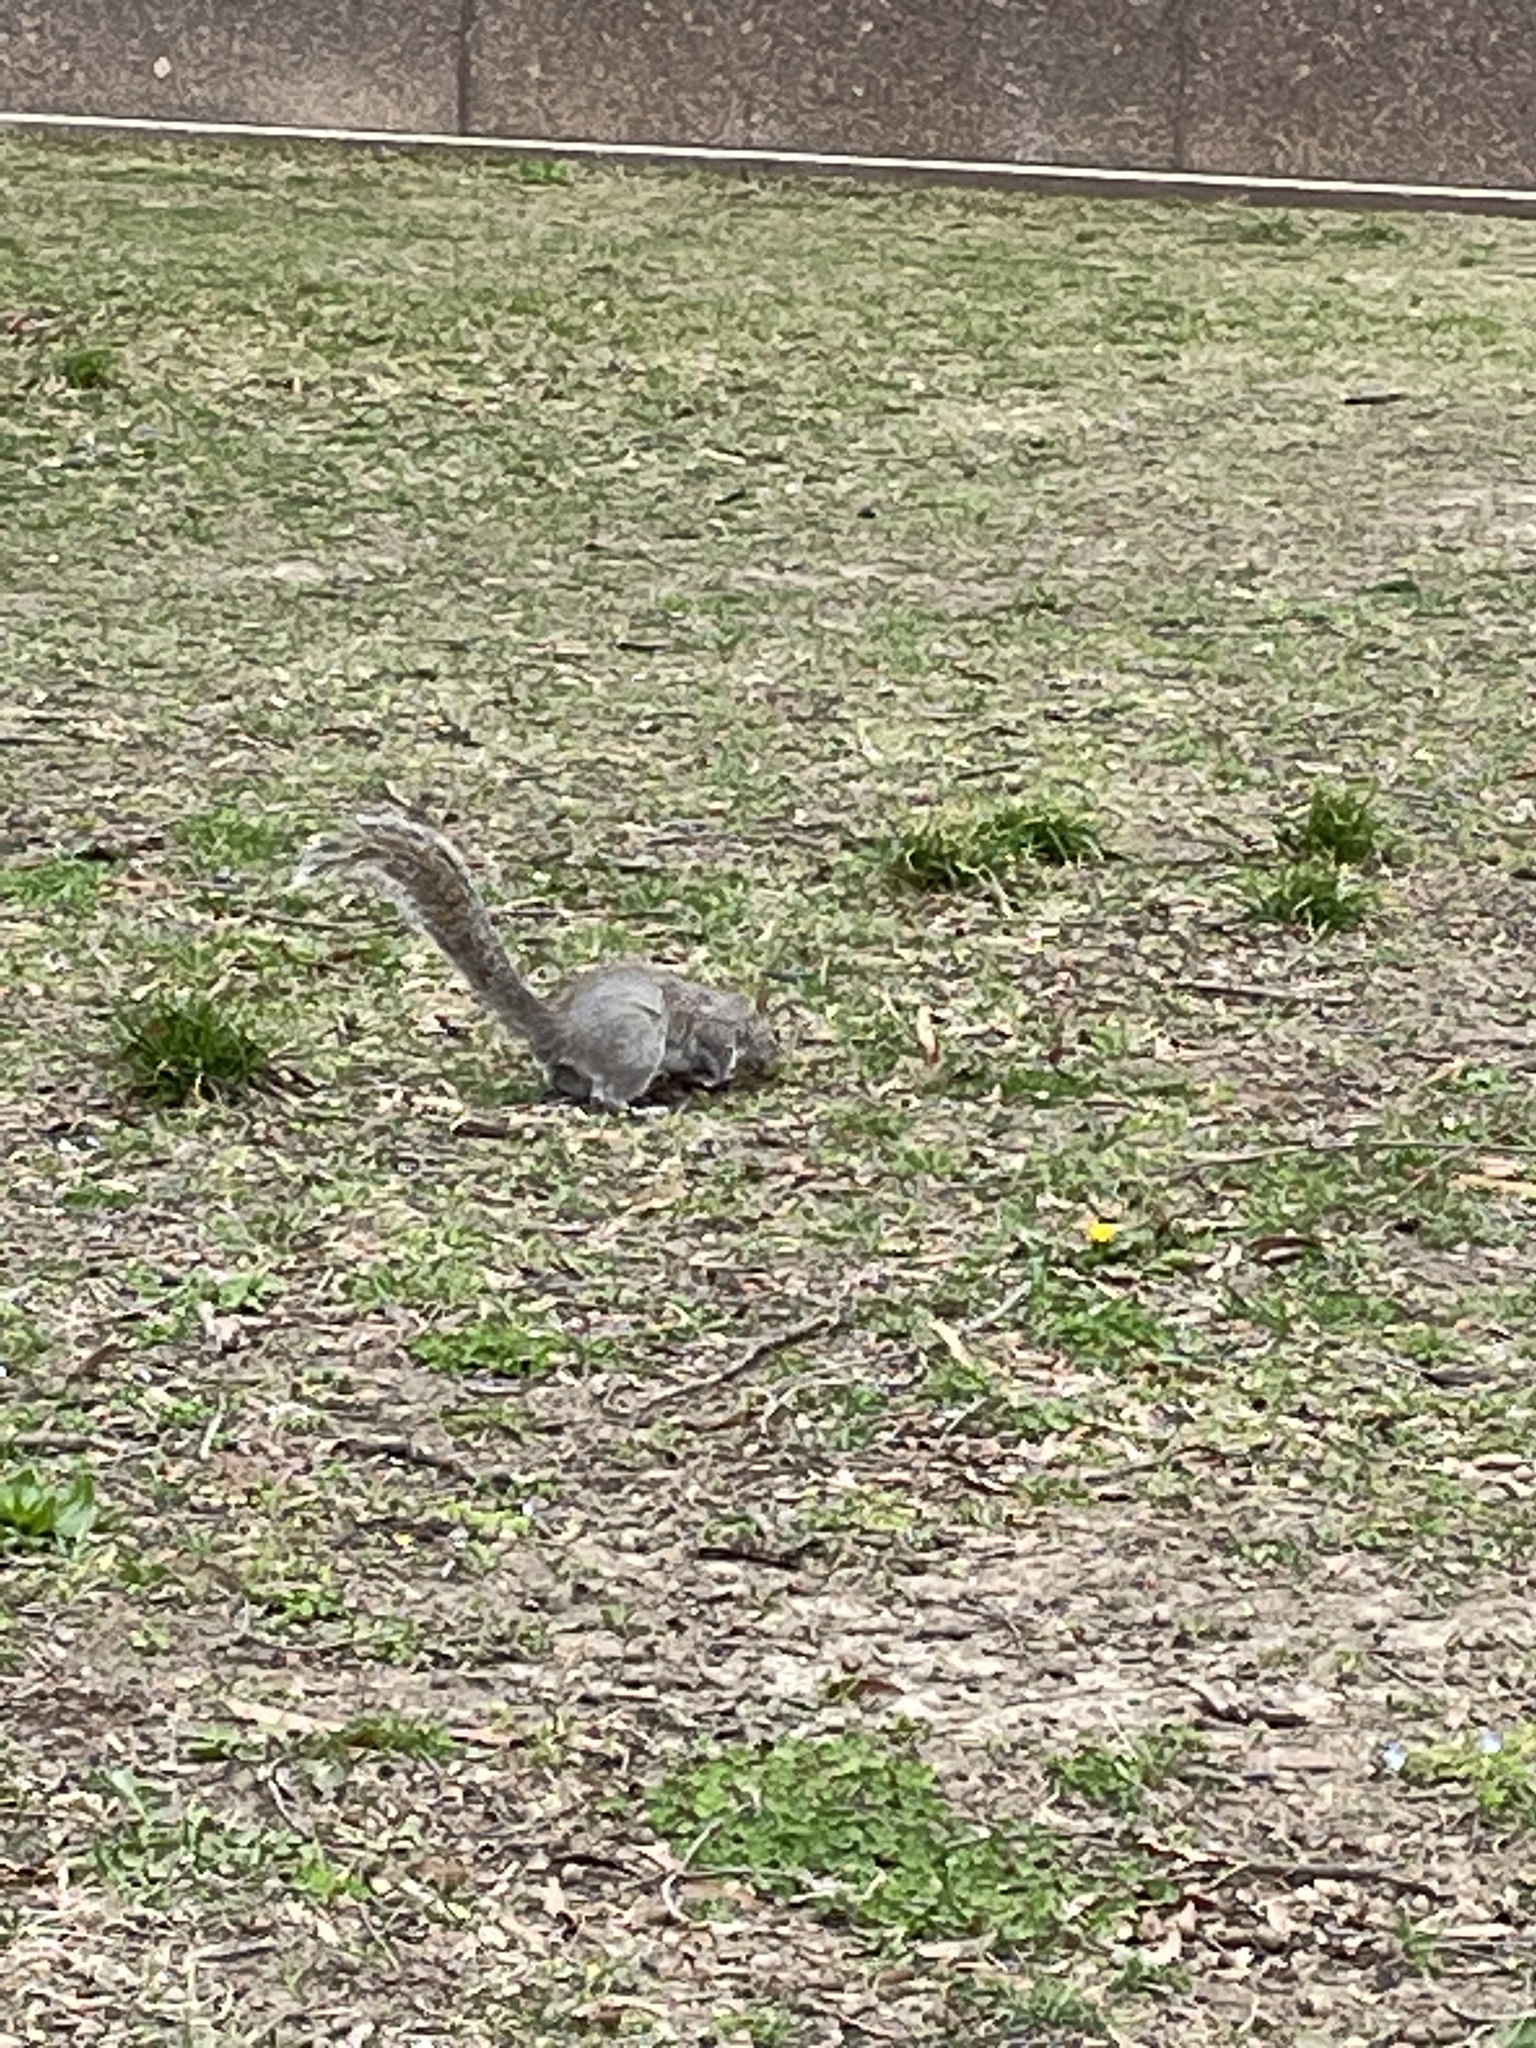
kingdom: Animalia
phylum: Chordata
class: Mammalia
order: Rodentia
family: Sciuridae
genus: Sciurus
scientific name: Sciurus carolinensis
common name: Eastern gray squirrel
